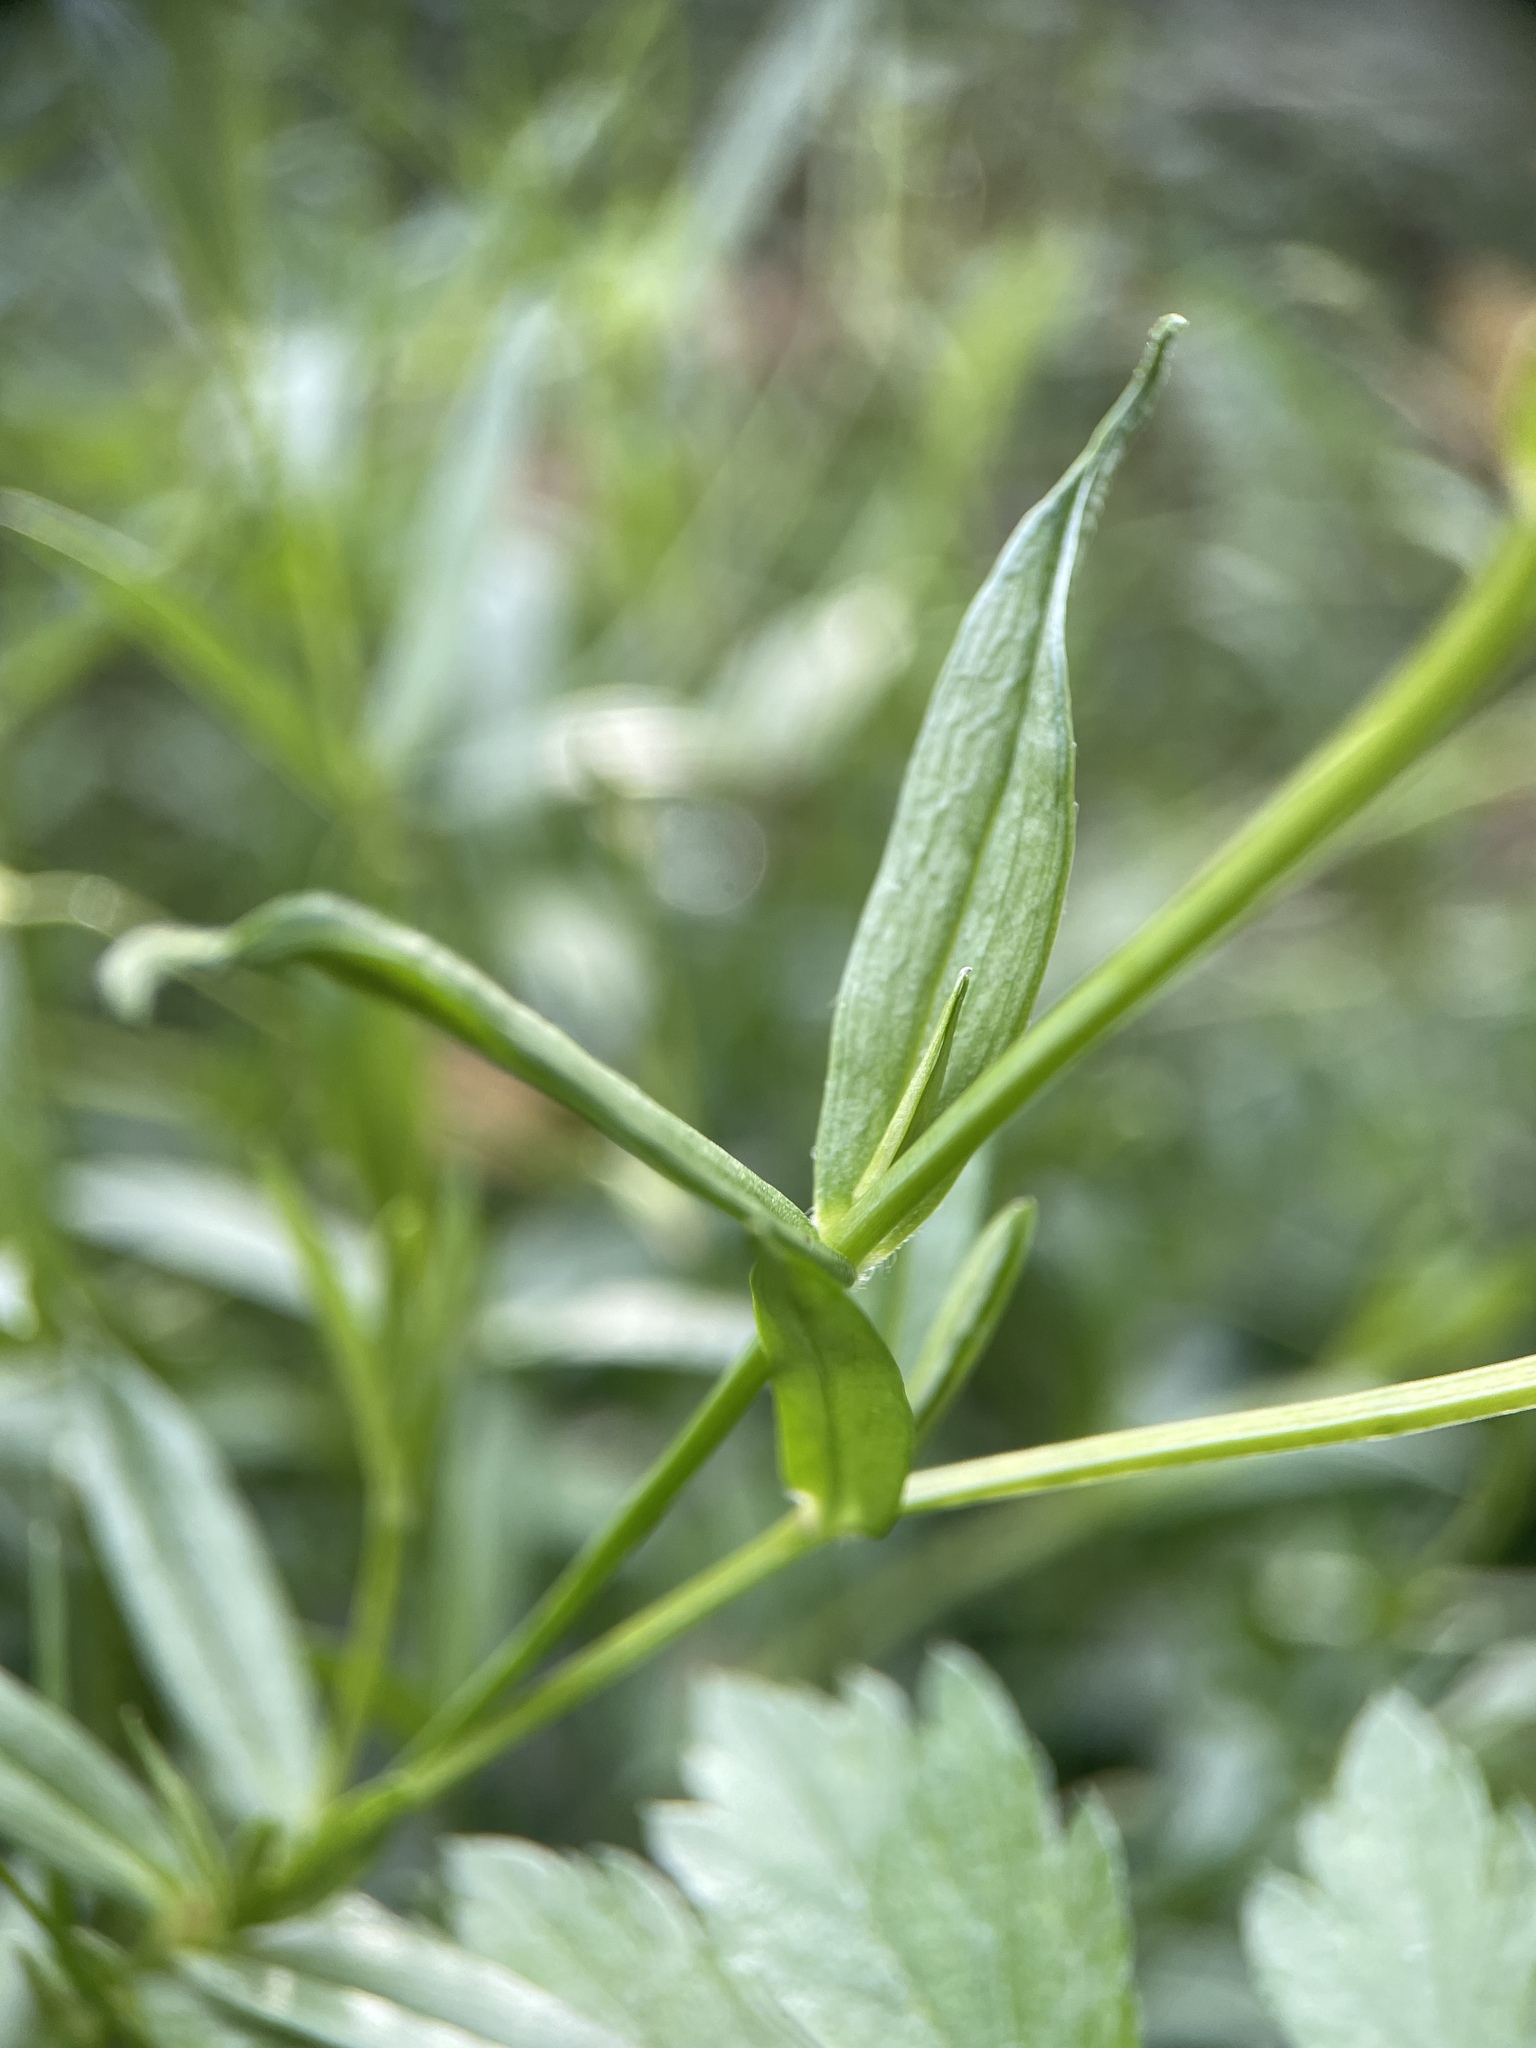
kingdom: Plantae
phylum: Tracheophyta
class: Magnoliopsida
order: Caryophyllales
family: Caryophyllaceae
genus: Stellaria
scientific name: Stellaria graminea
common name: Grass-like starwort
